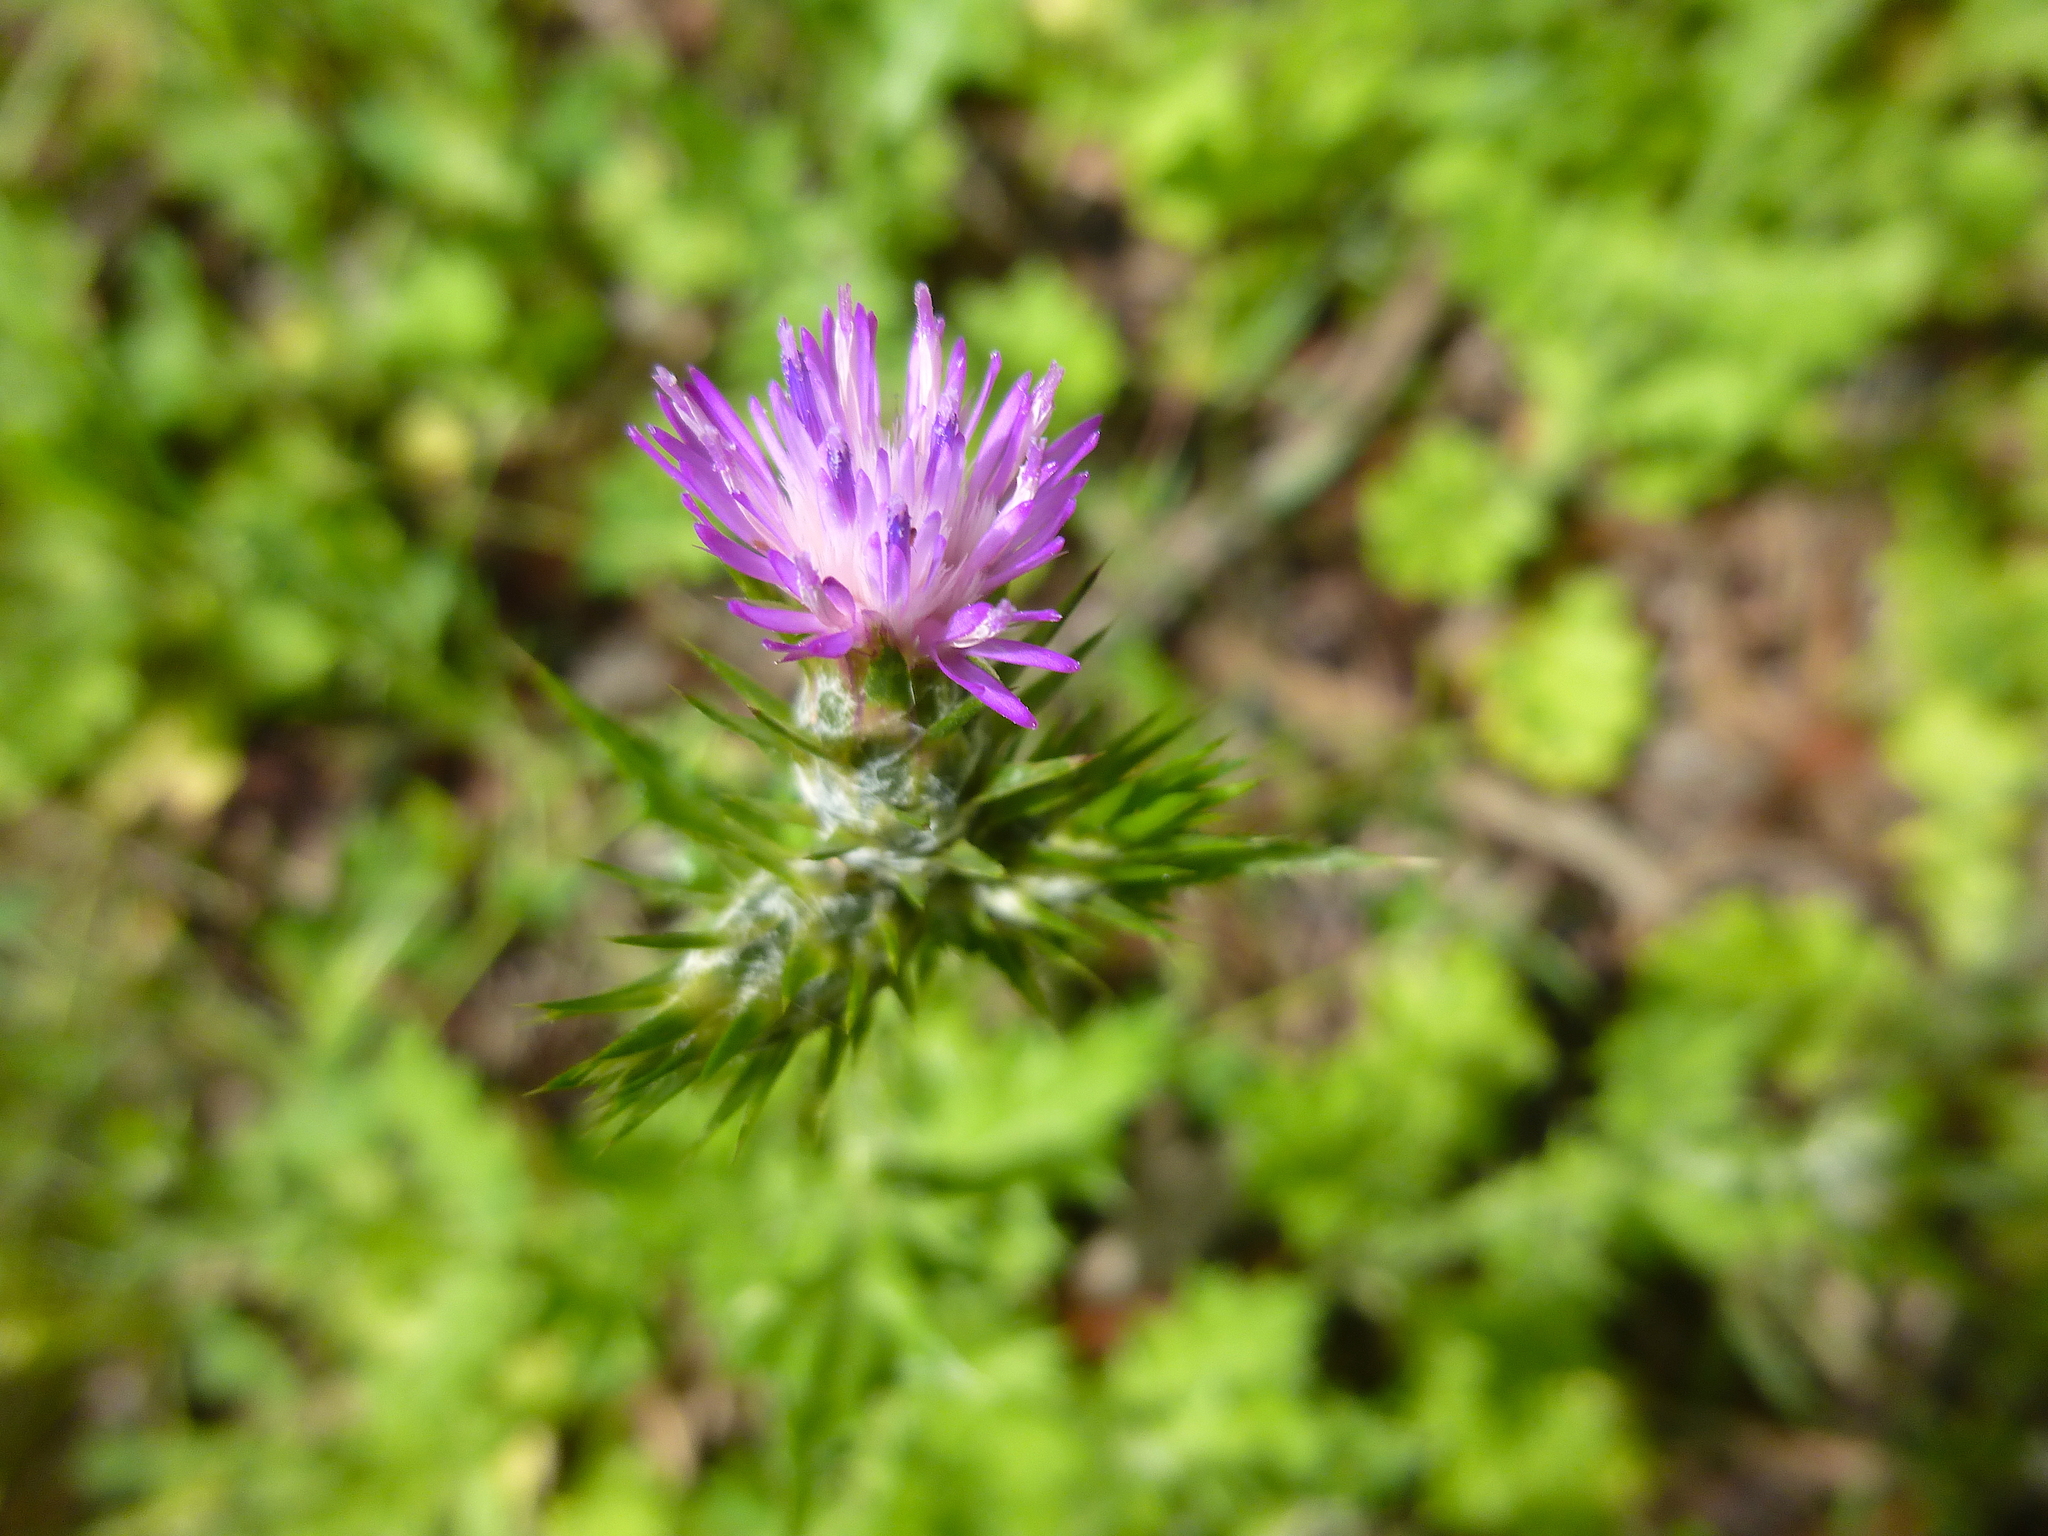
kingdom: Plantae
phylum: Tracheophyta
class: Magnoliopsida
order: Asterales
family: Asteraceae
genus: Carduus
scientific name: Carduus pycnocephalus
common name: Plymouth thistle
